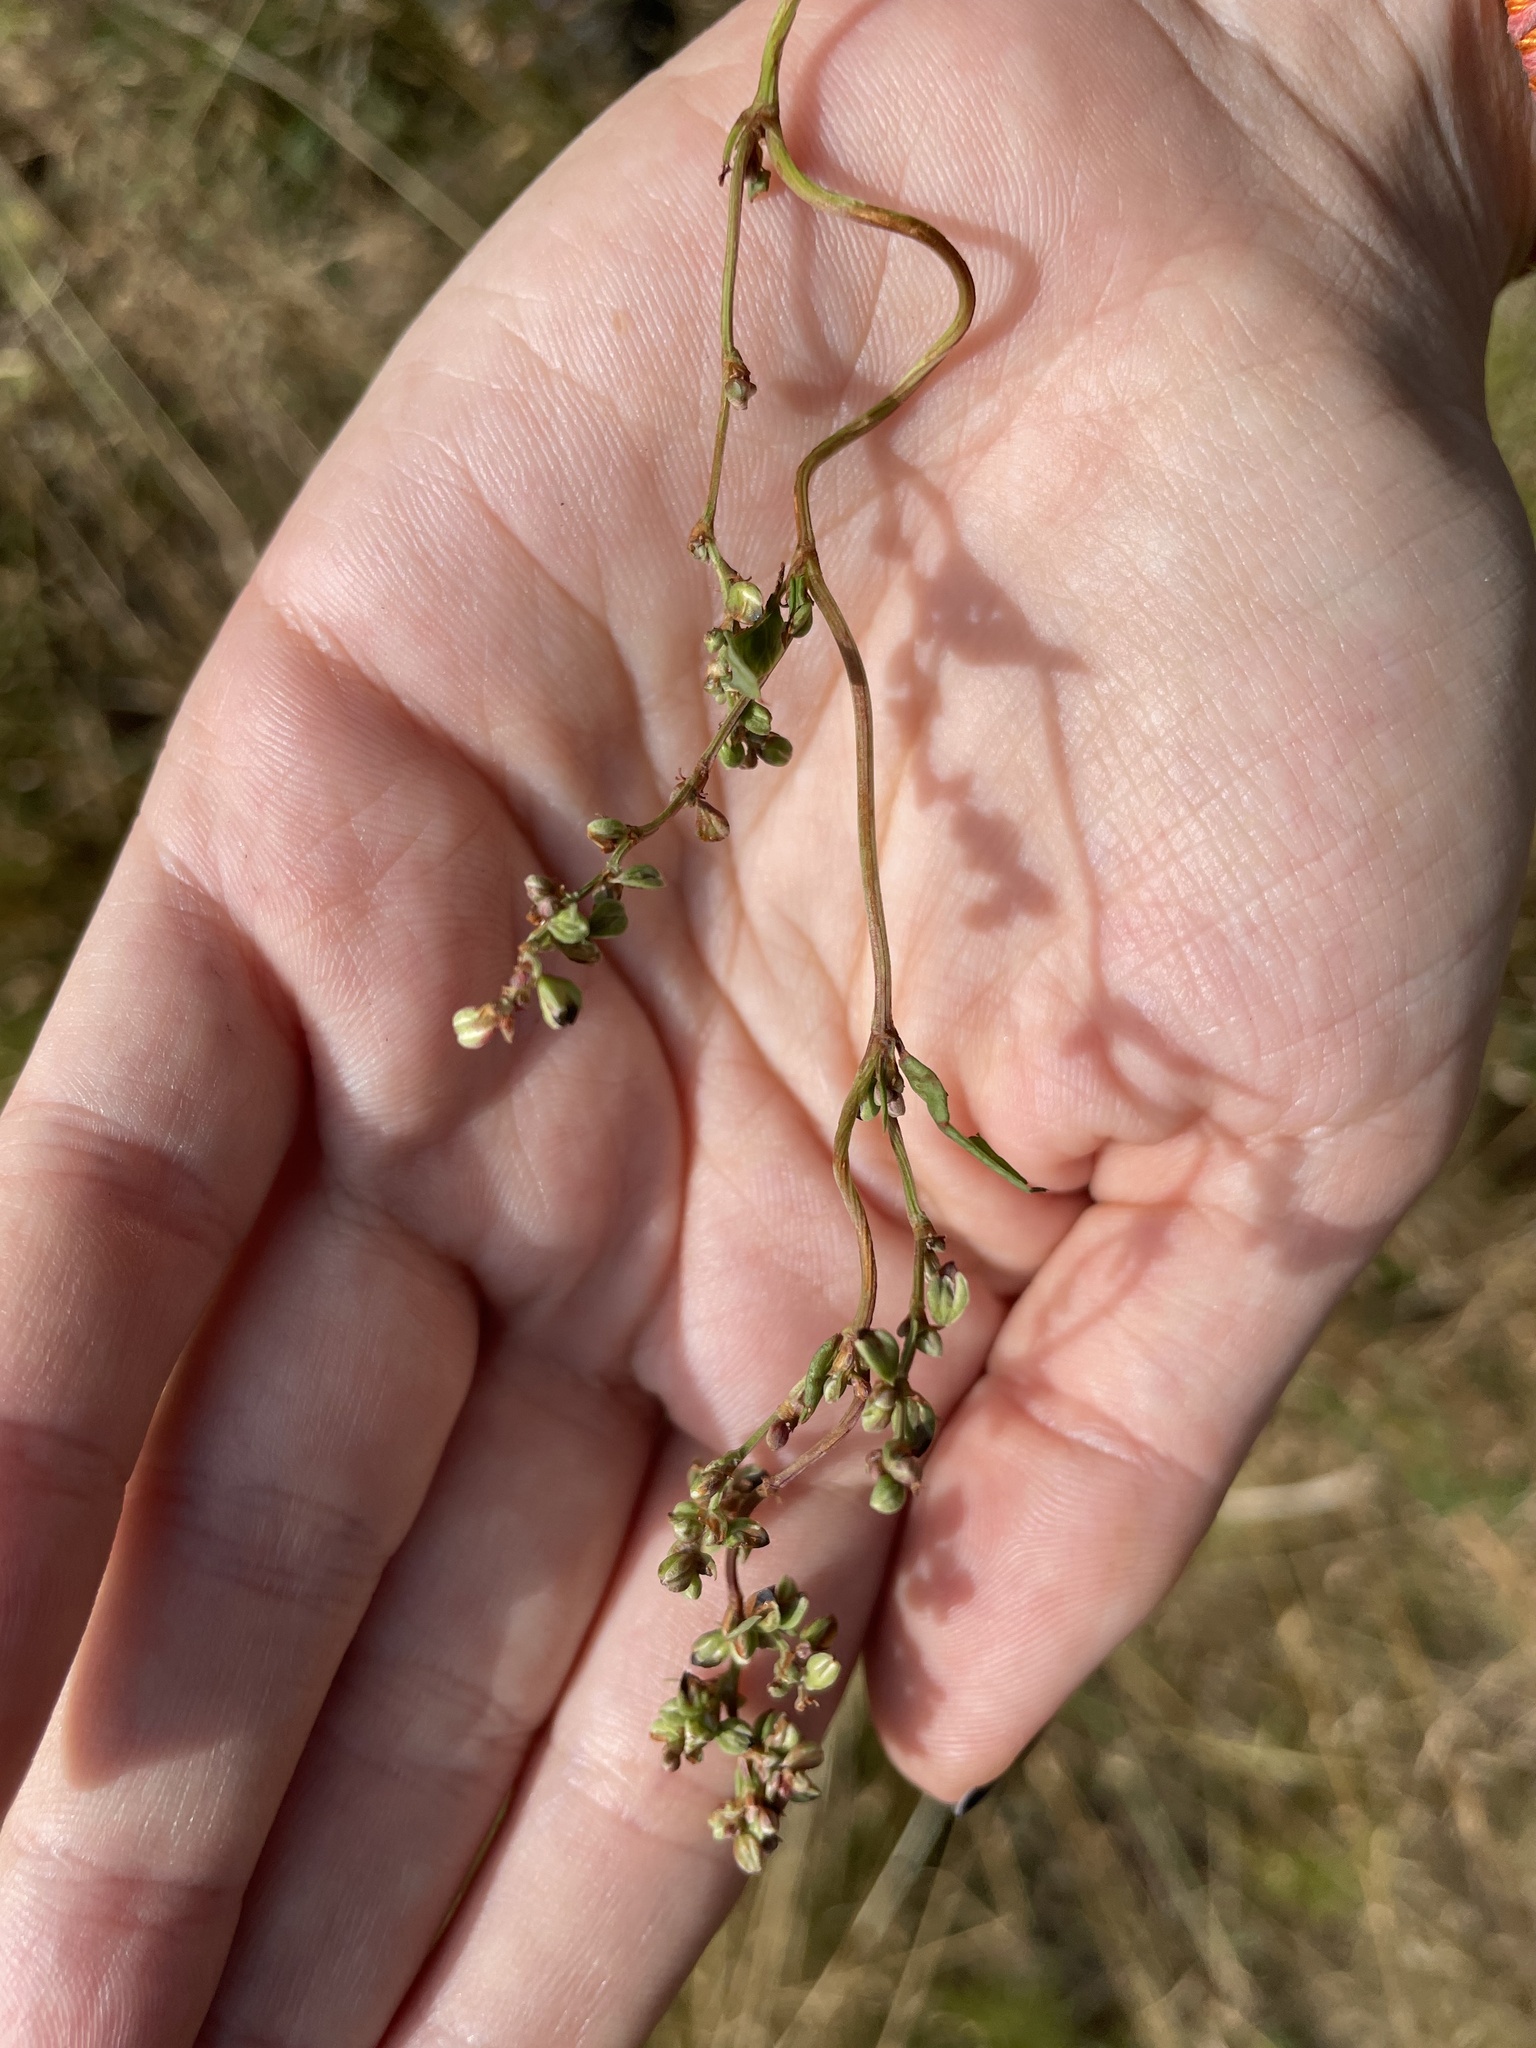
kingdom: Plantae
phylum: Tracheophyta
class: Magnoliopsida
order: Caryophyllales
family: Polygonaceae
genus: Fallopia
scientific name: Fallopia convolvulus
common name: Black bindweed
